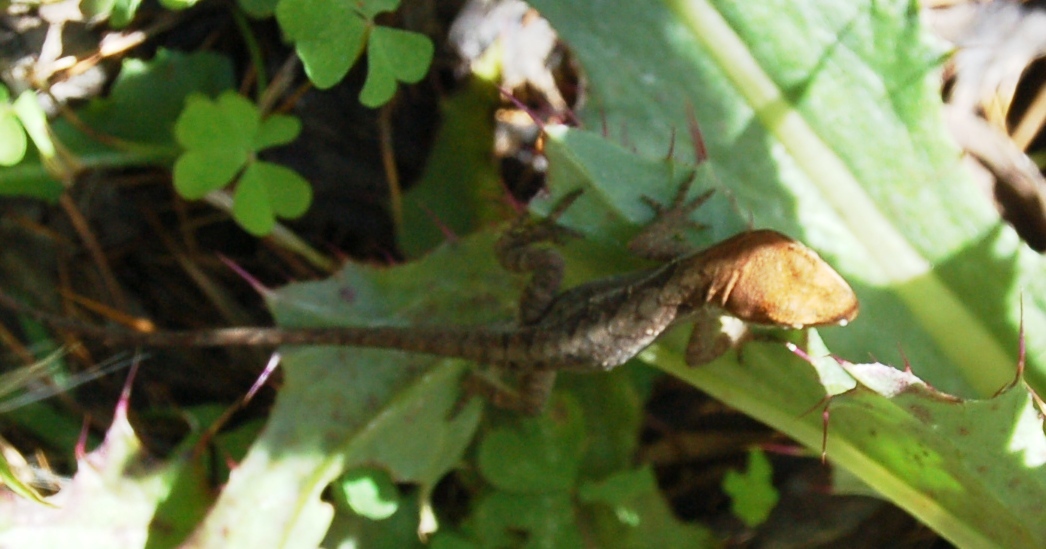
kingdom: Animalia
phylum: Chordata
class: Squamata
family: Dactyloidae
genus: Anolis
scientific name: Anolis anisolepis
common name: Chiapas ornate anole
